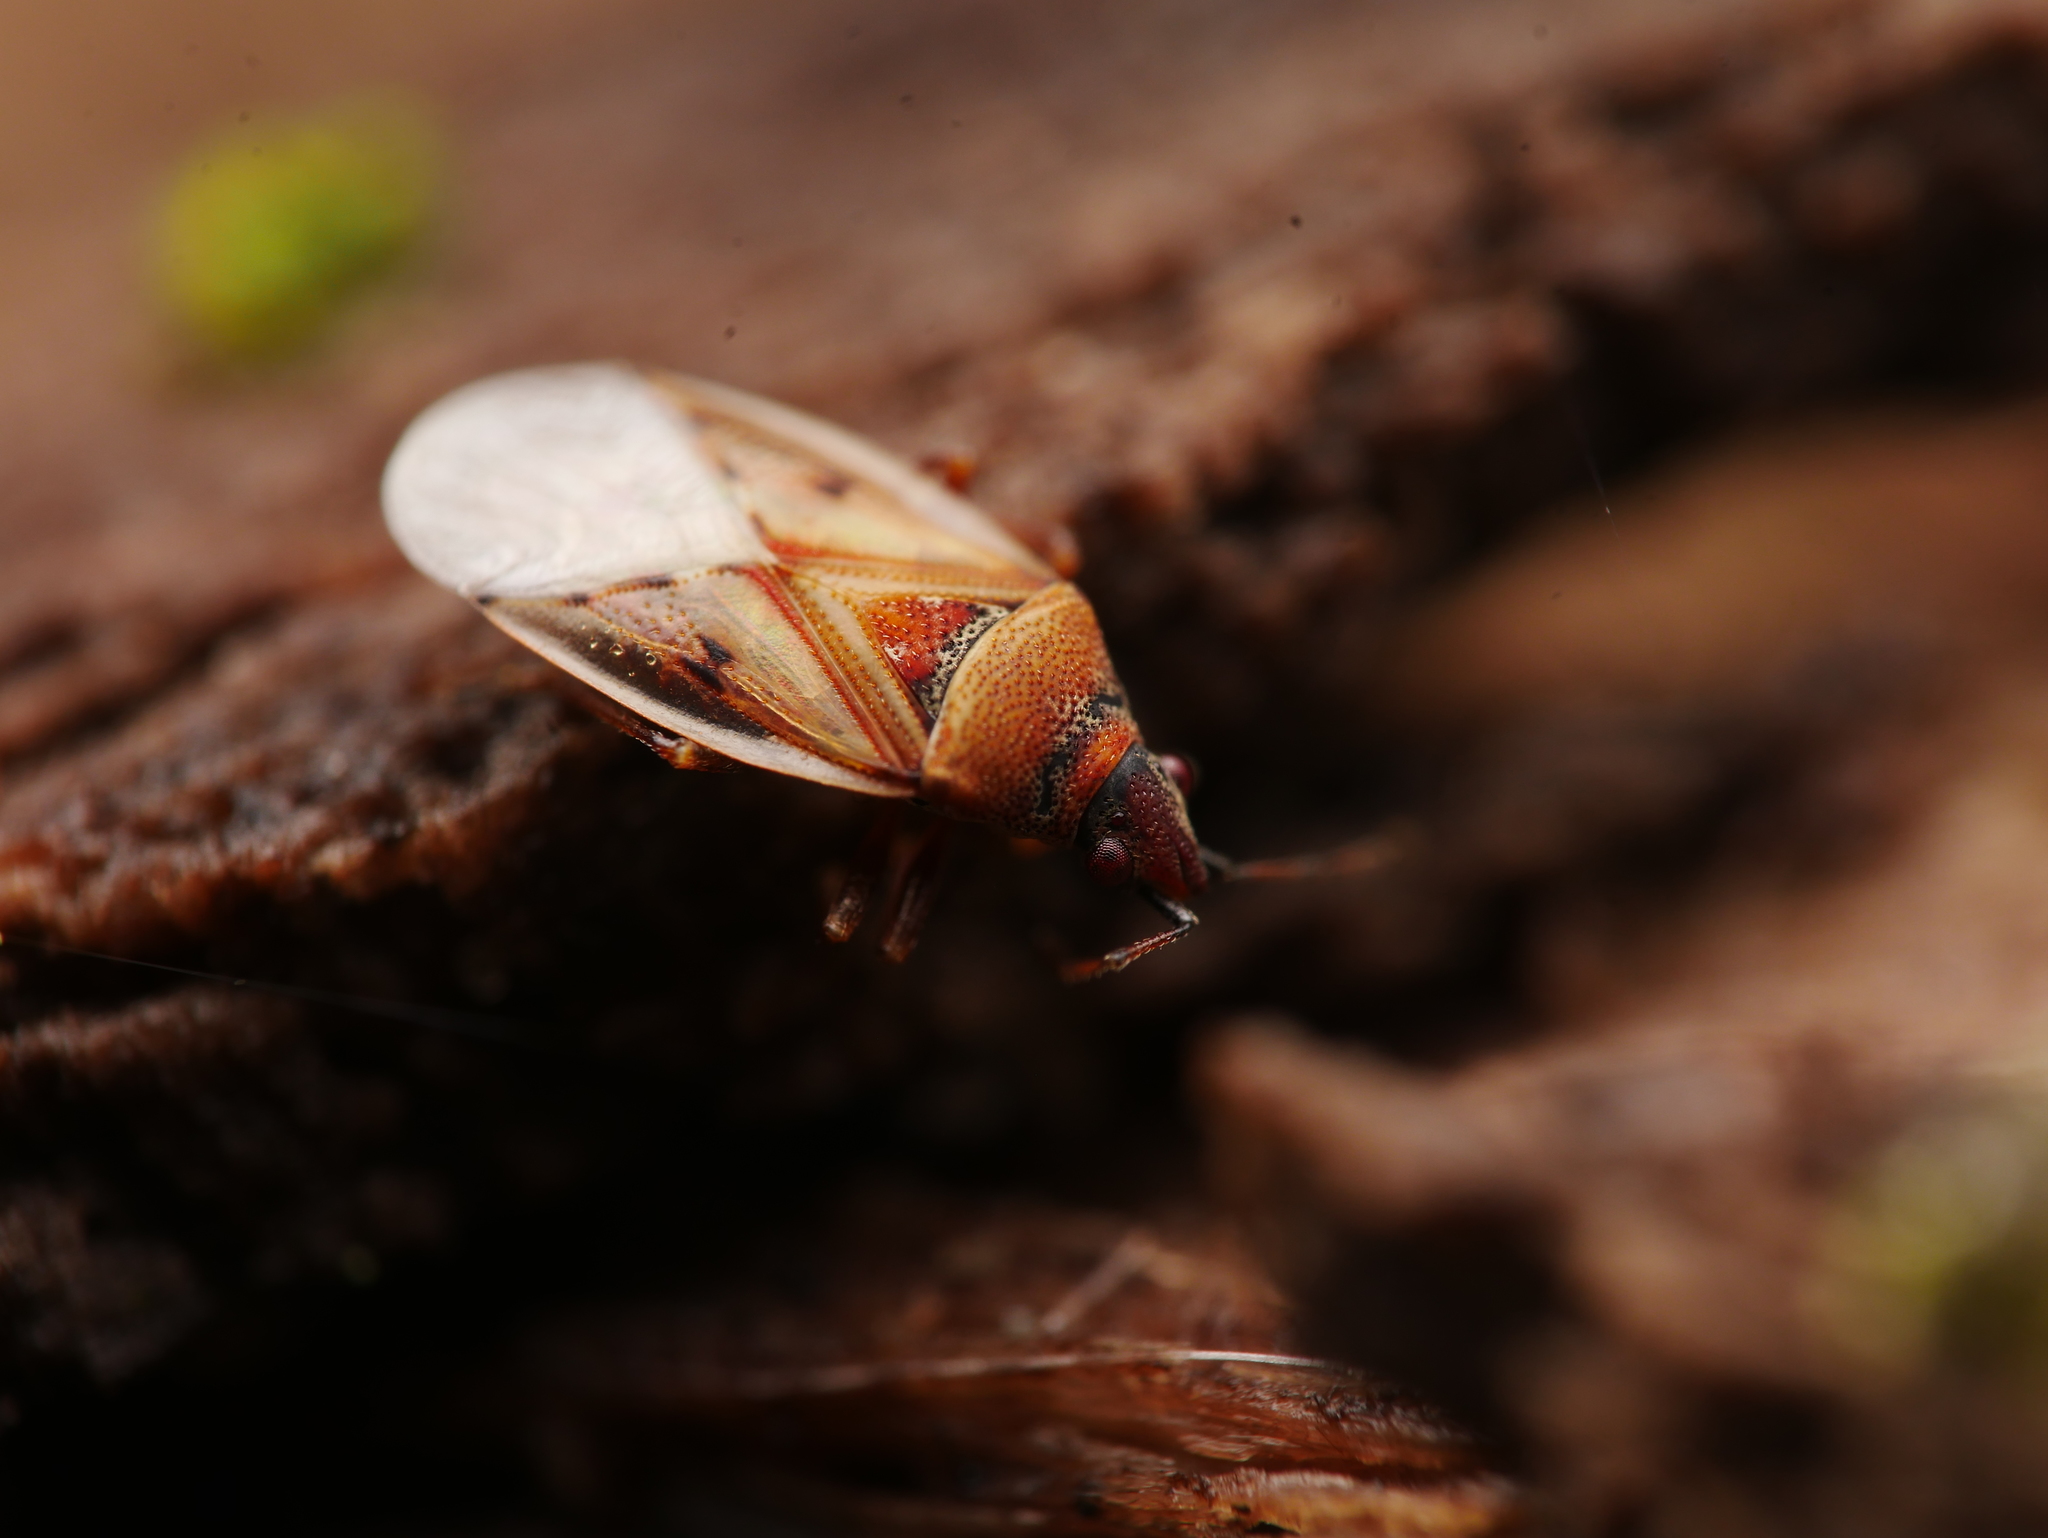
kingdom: Animalia
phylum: Arthropoda
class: Insecta
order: Hemiptera
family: Lygaeidae
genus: Kleidocerys
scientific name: Kleidocerys resedae
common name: Birch catkin bug
